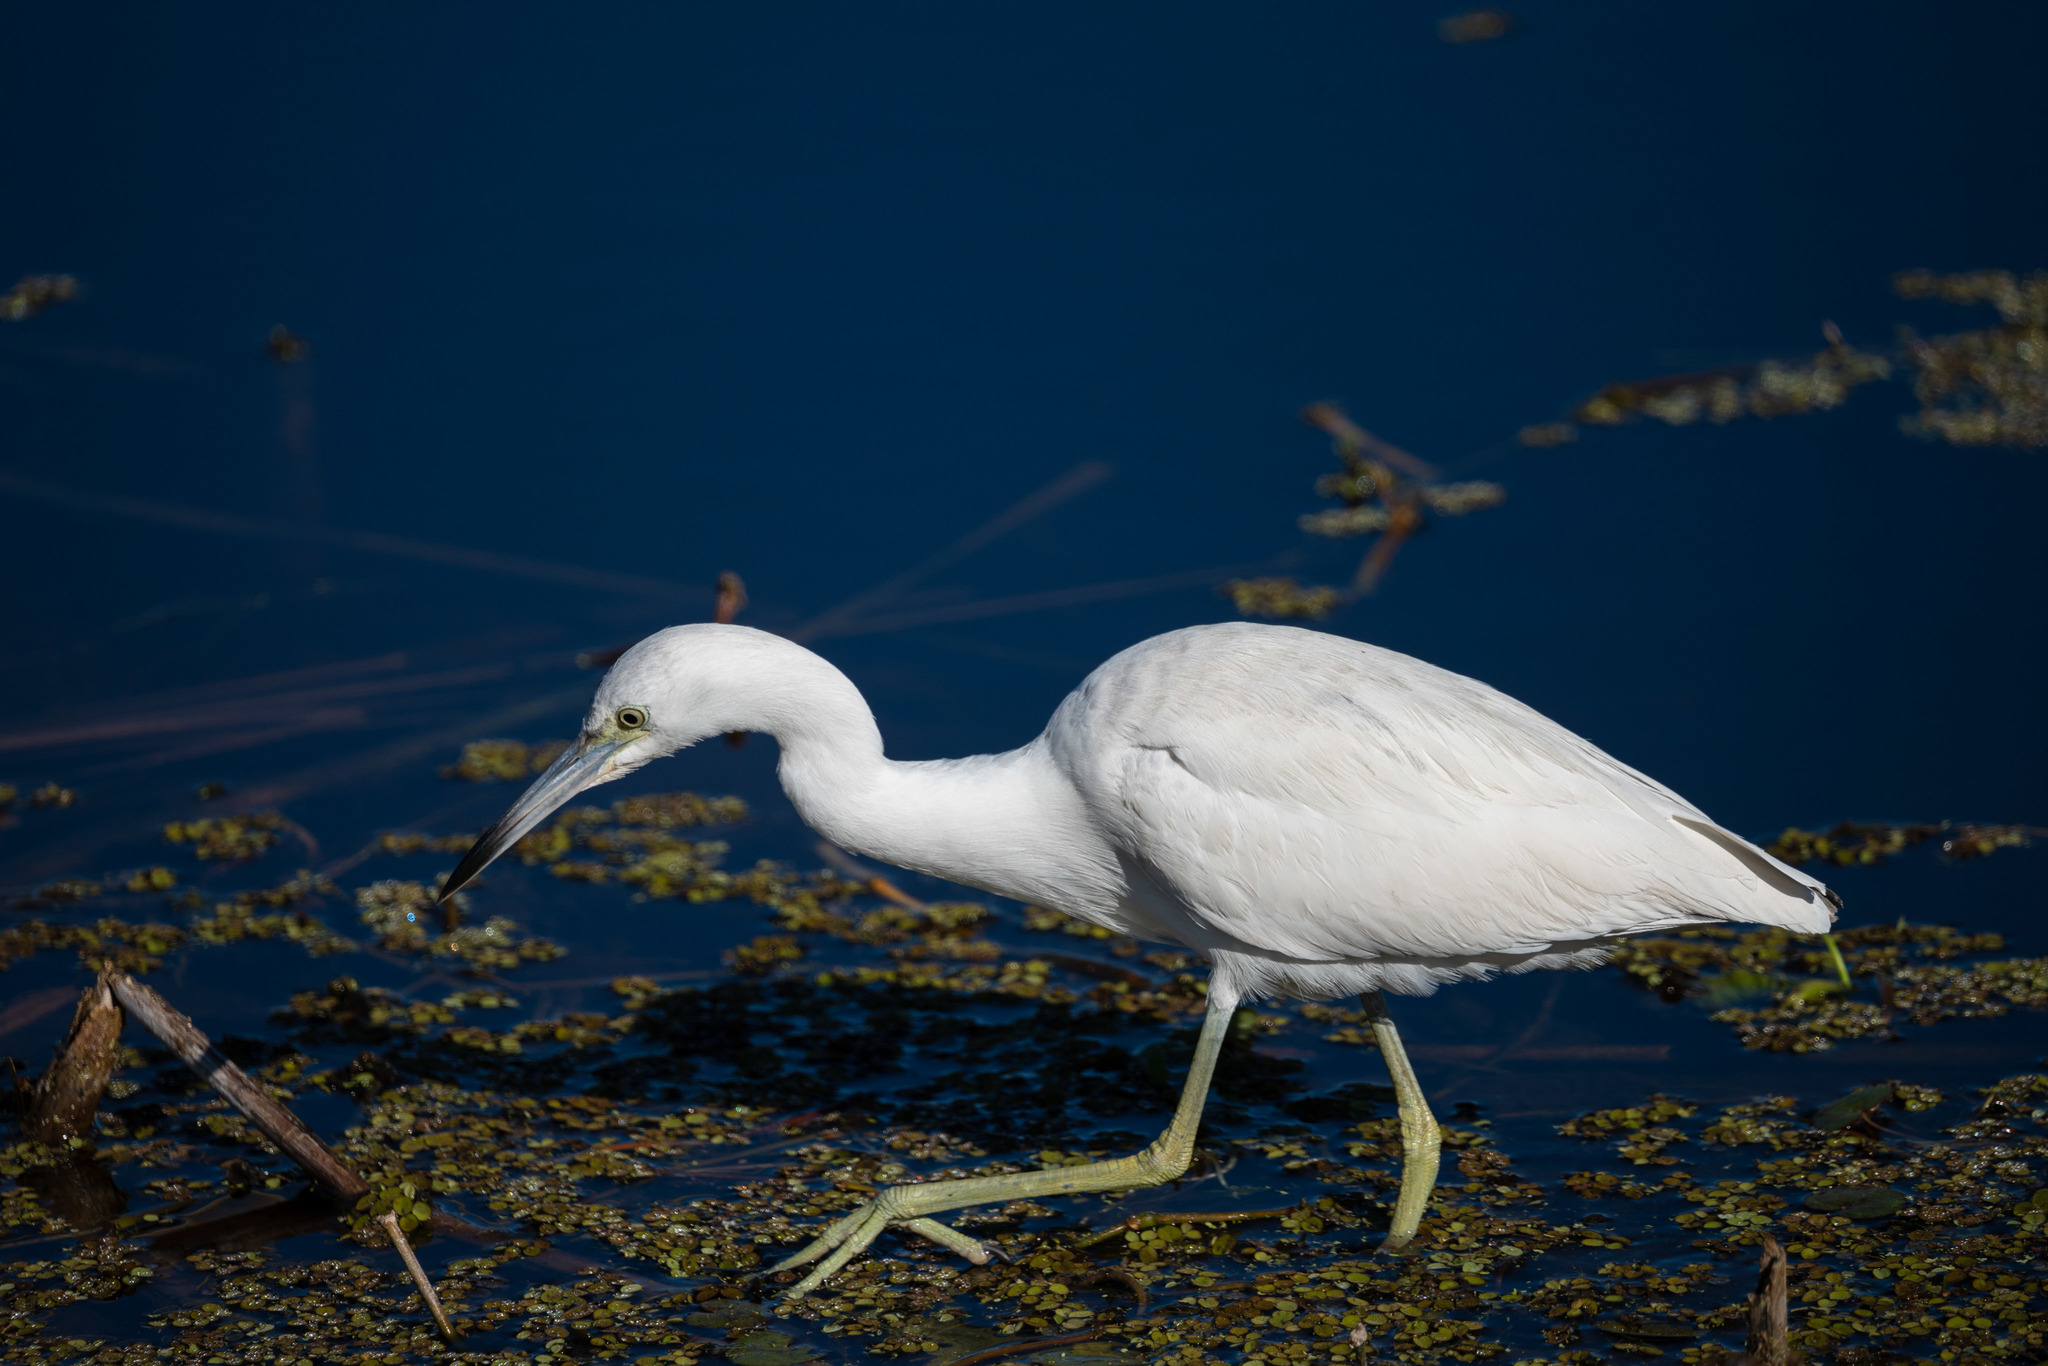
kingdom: Animalia
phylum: Chordata
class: Aves
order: Pelecaniformes
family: Ardeidae
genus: Egretta
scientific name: Egretta caerulea
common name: Little blue heron
